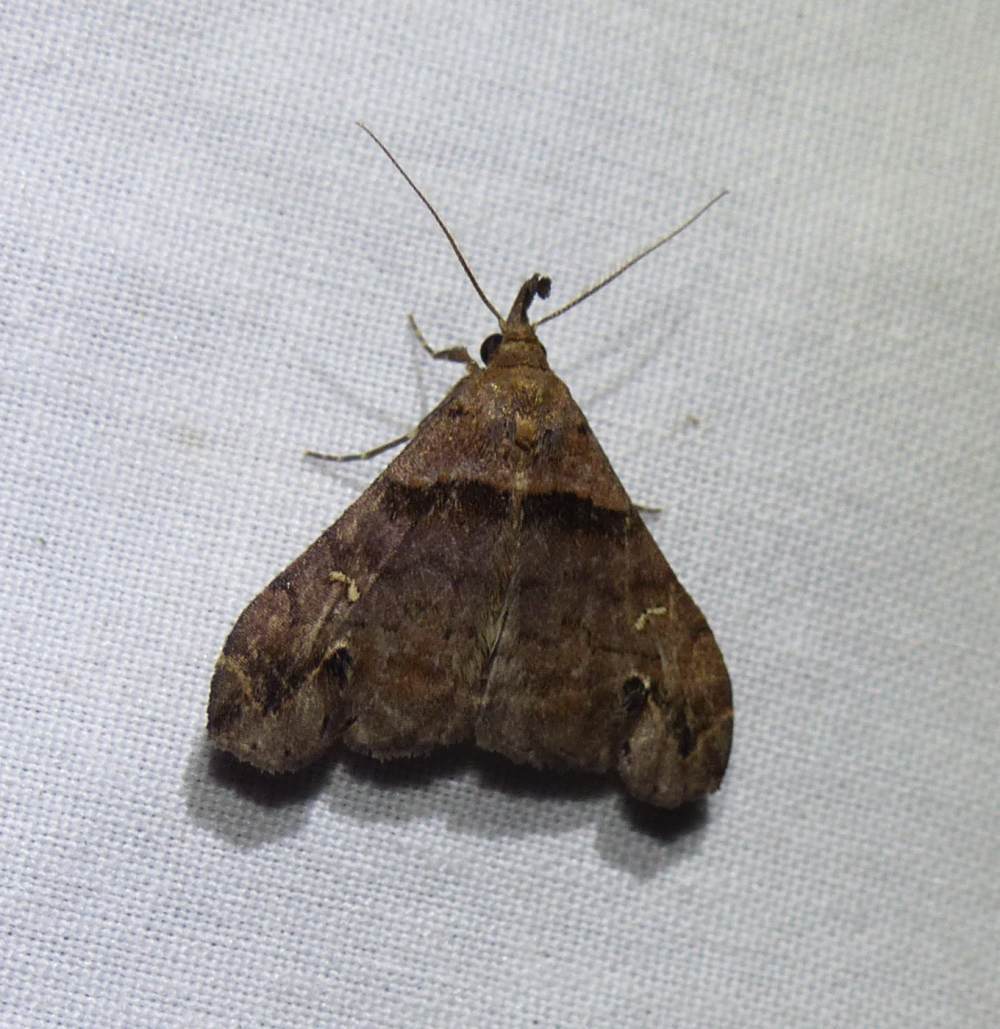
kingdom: Animalia
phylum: Arthropoda
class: Insecta
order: Lepidoptera
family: Erebidae
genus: Lascoria
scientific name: Lascoria ambigualis
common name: Ambiguous moth
